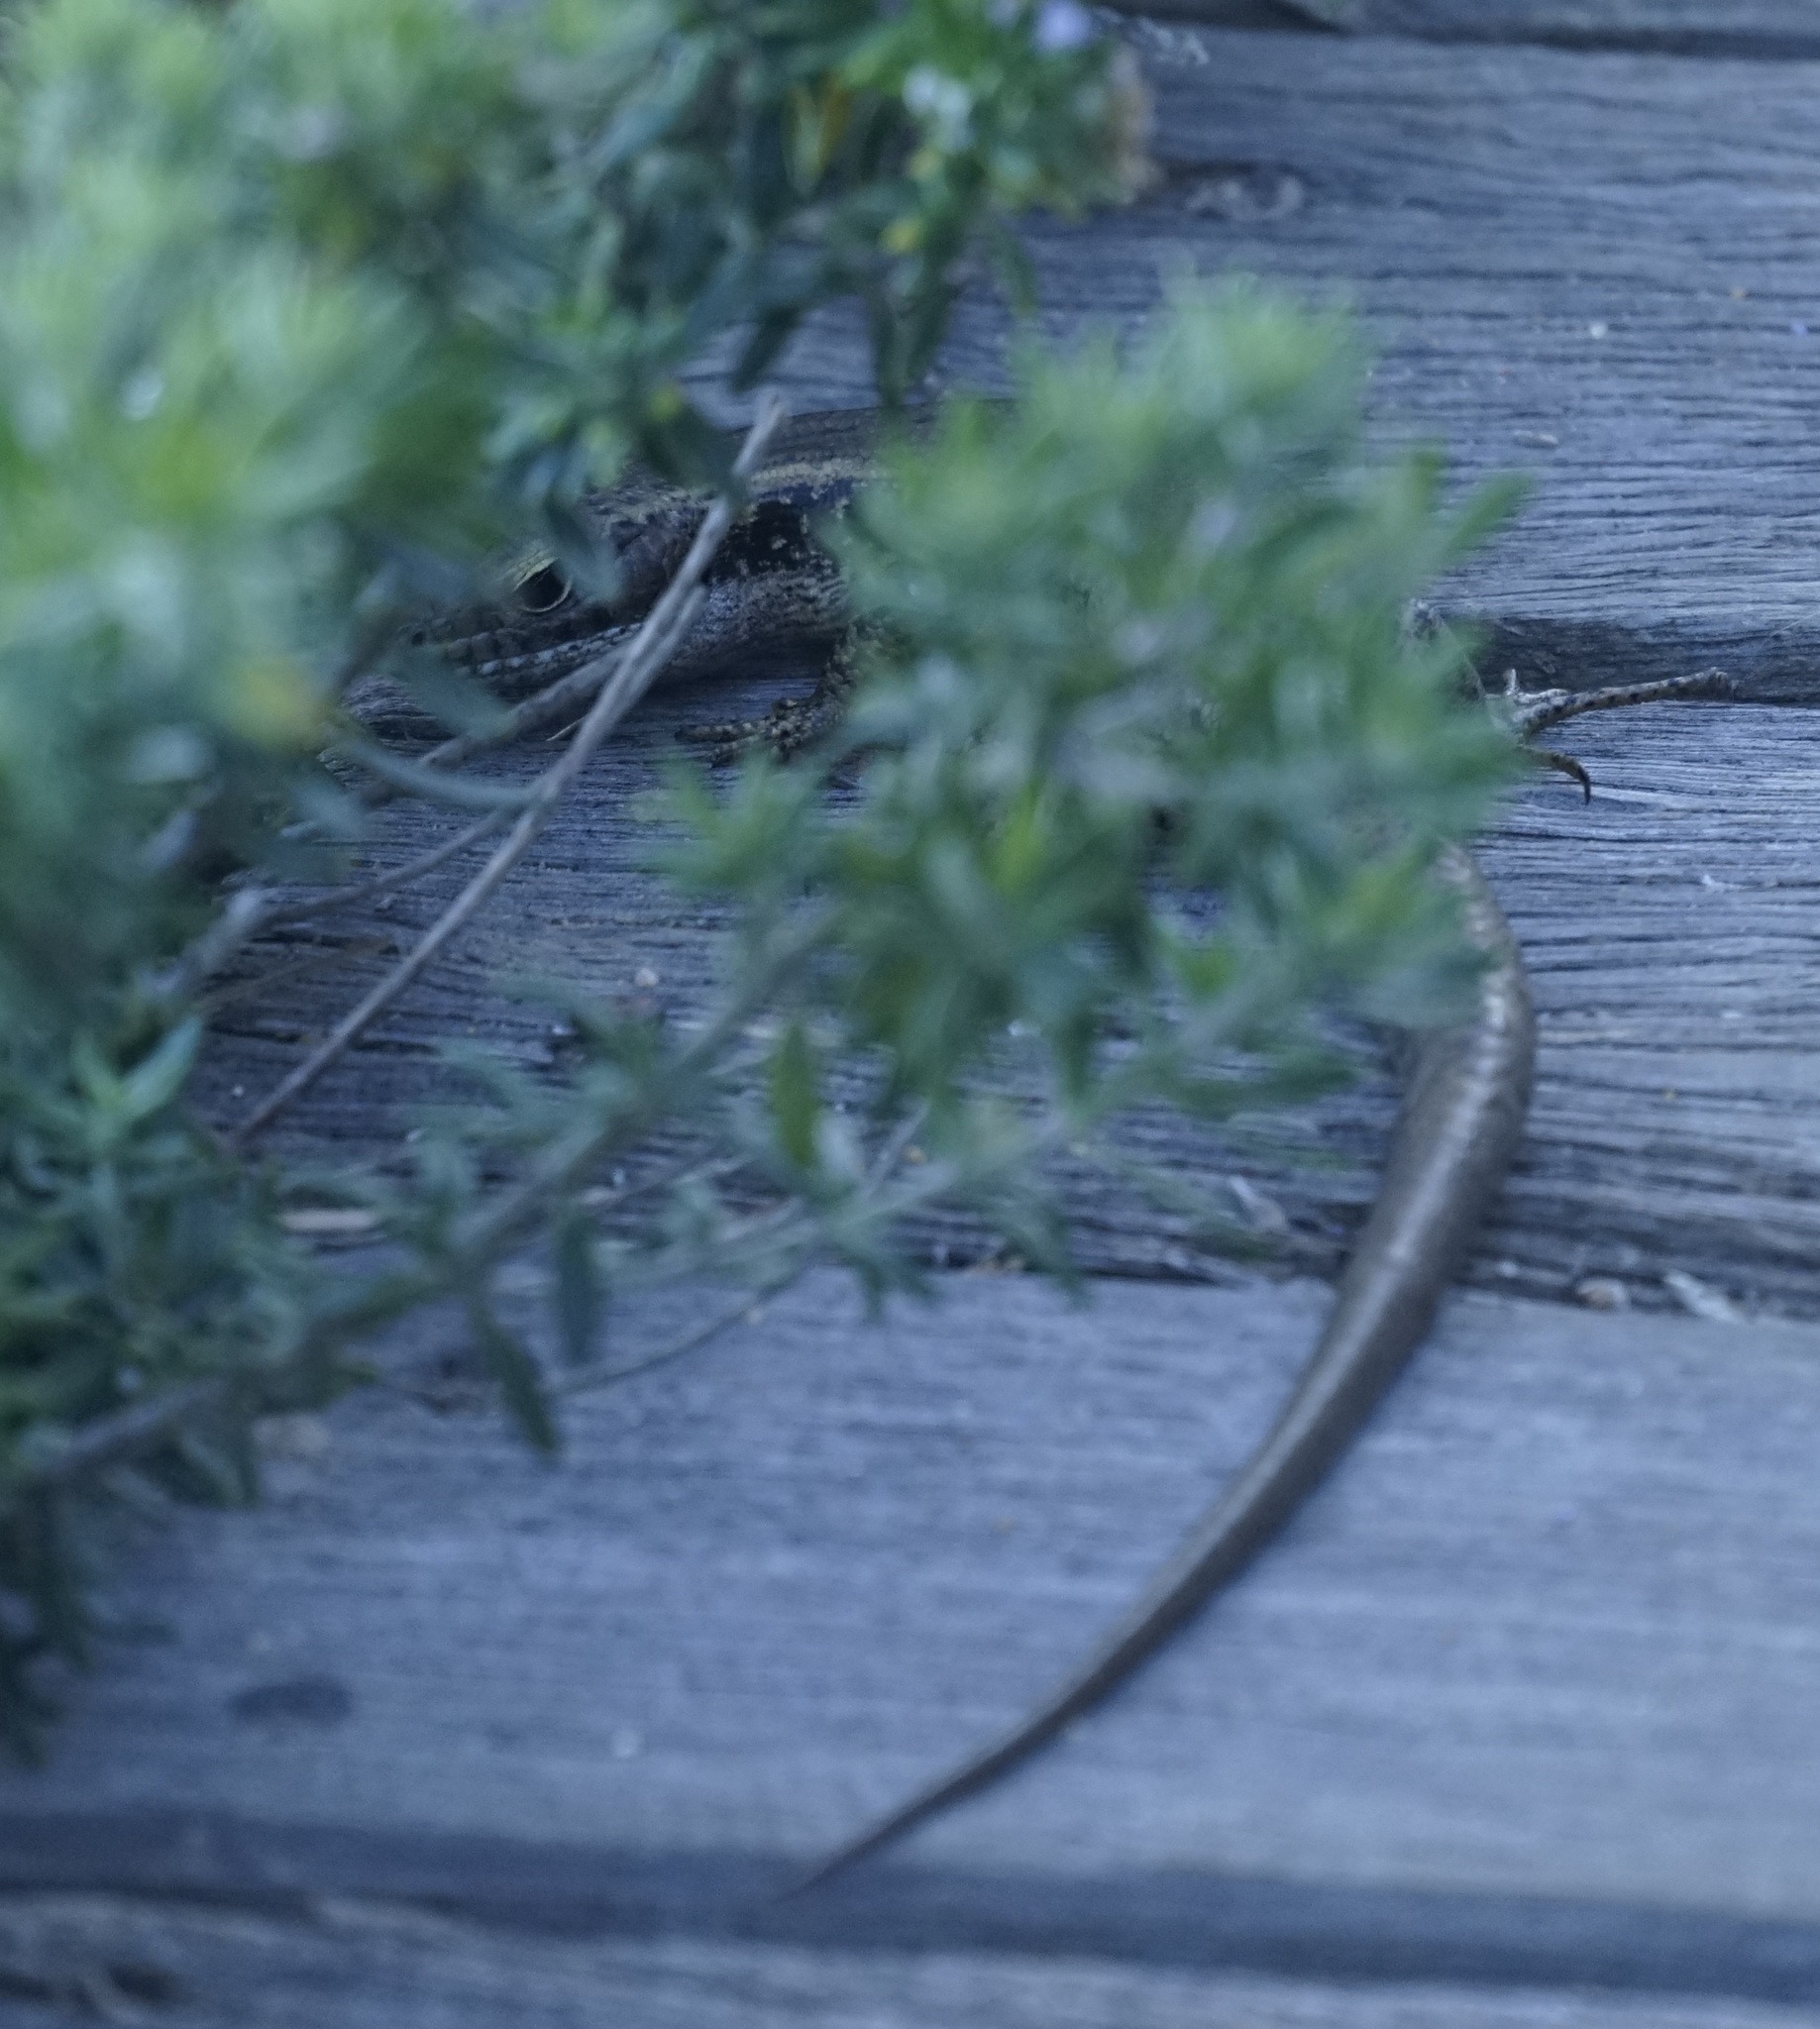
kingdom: Animalia
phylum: Chordata
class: Squamata
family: Scincidae
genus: Eulamprus
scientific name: Eulamprus quoyii
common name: Eastern water skink
